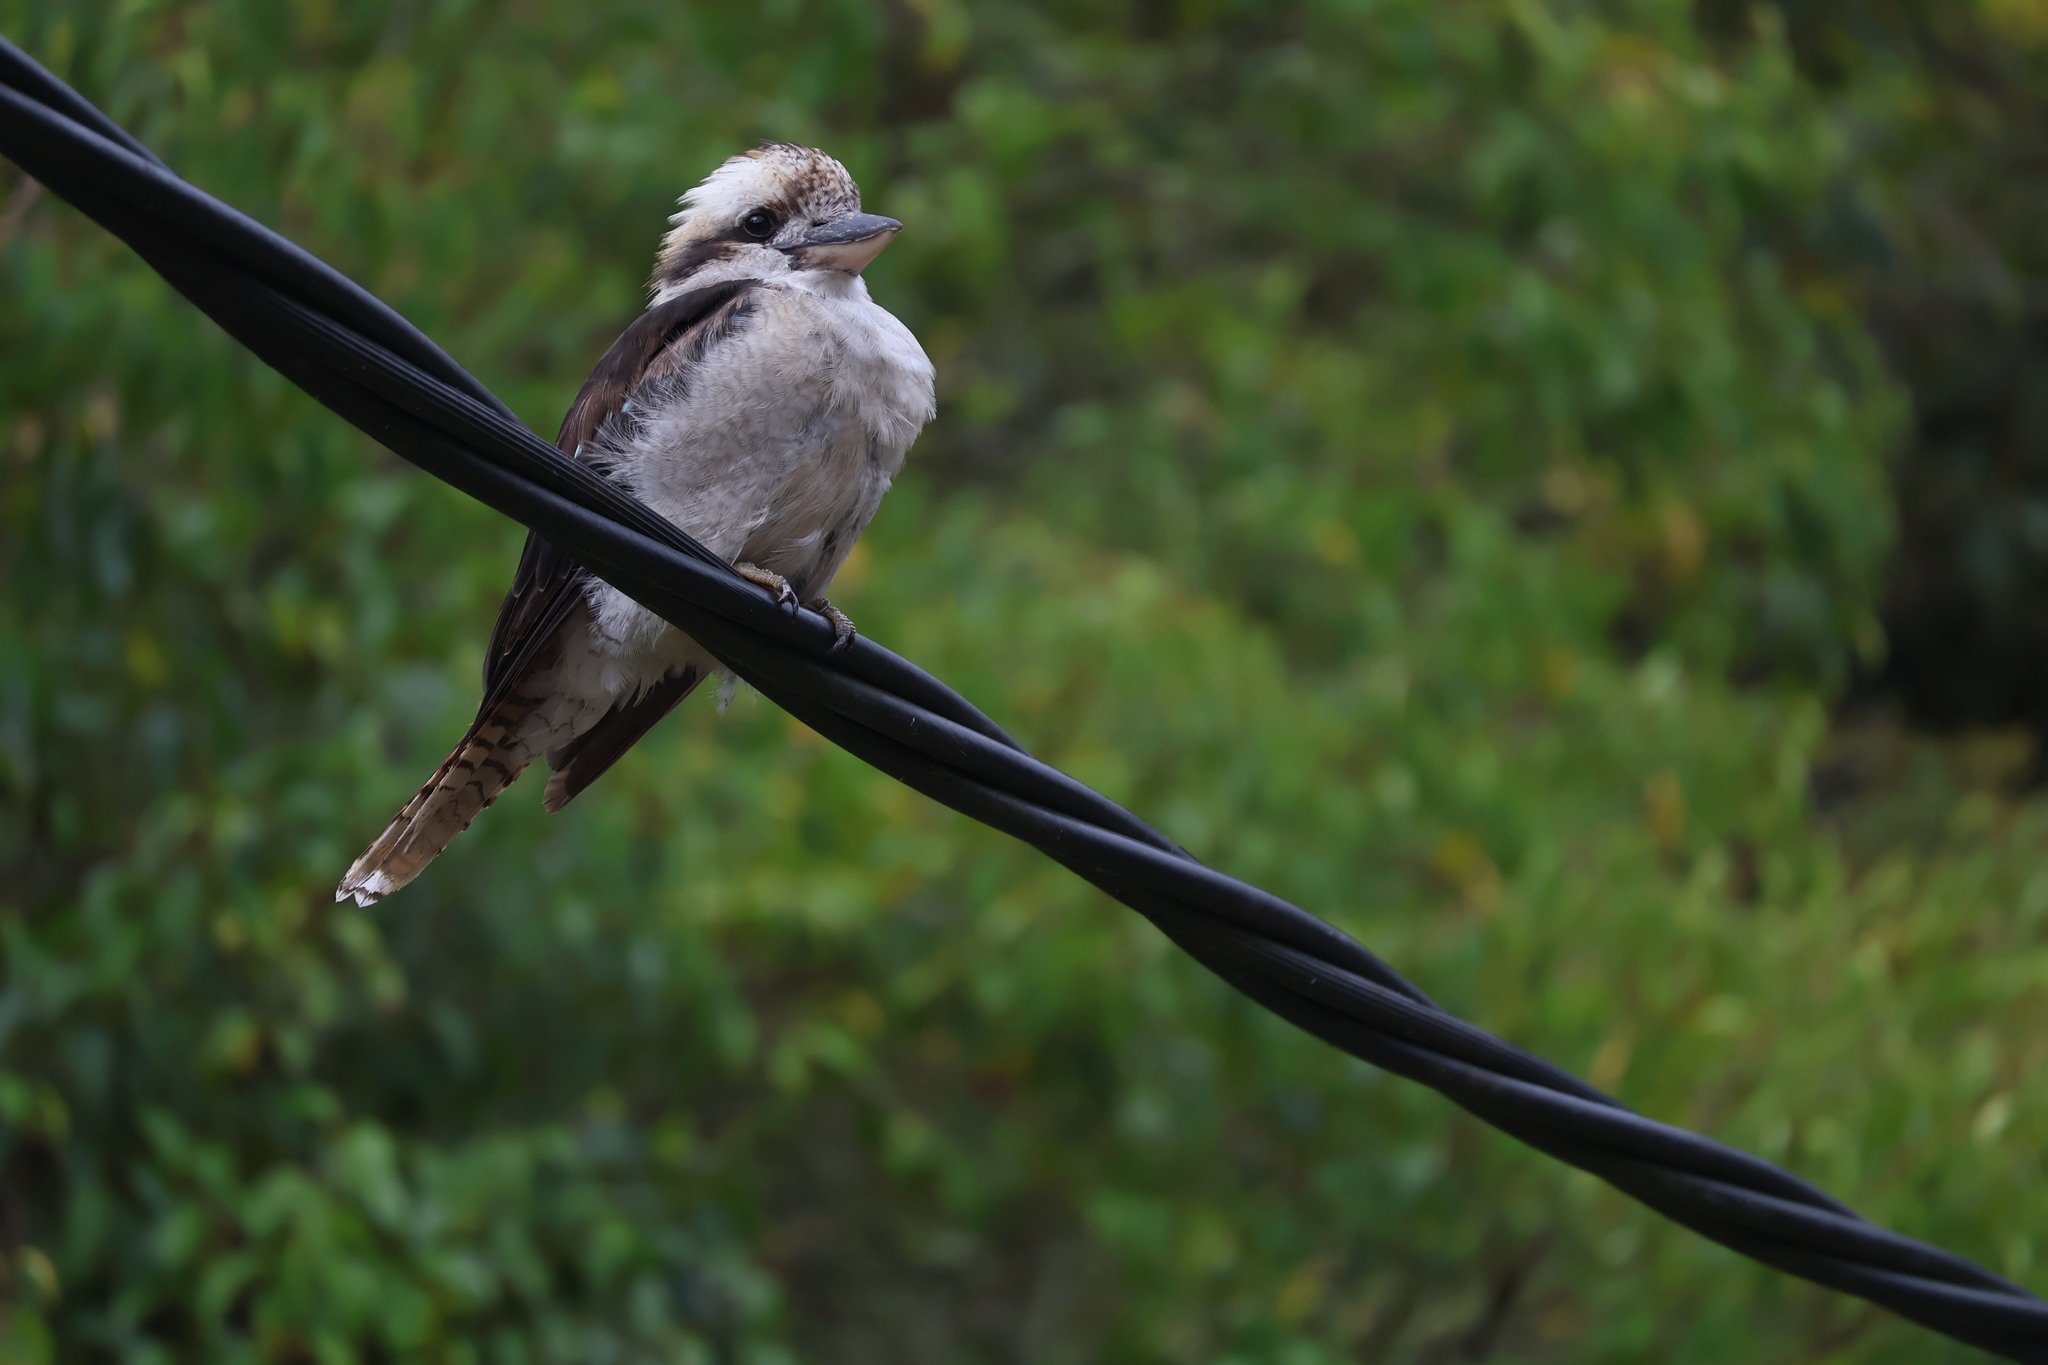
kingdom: Animalia
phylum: Chordata
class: Aves
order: Coraciiformes
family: Alcedinidae
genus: Dacelo
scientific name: Dacelo novaeguineae
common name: Laughing kookaburra
